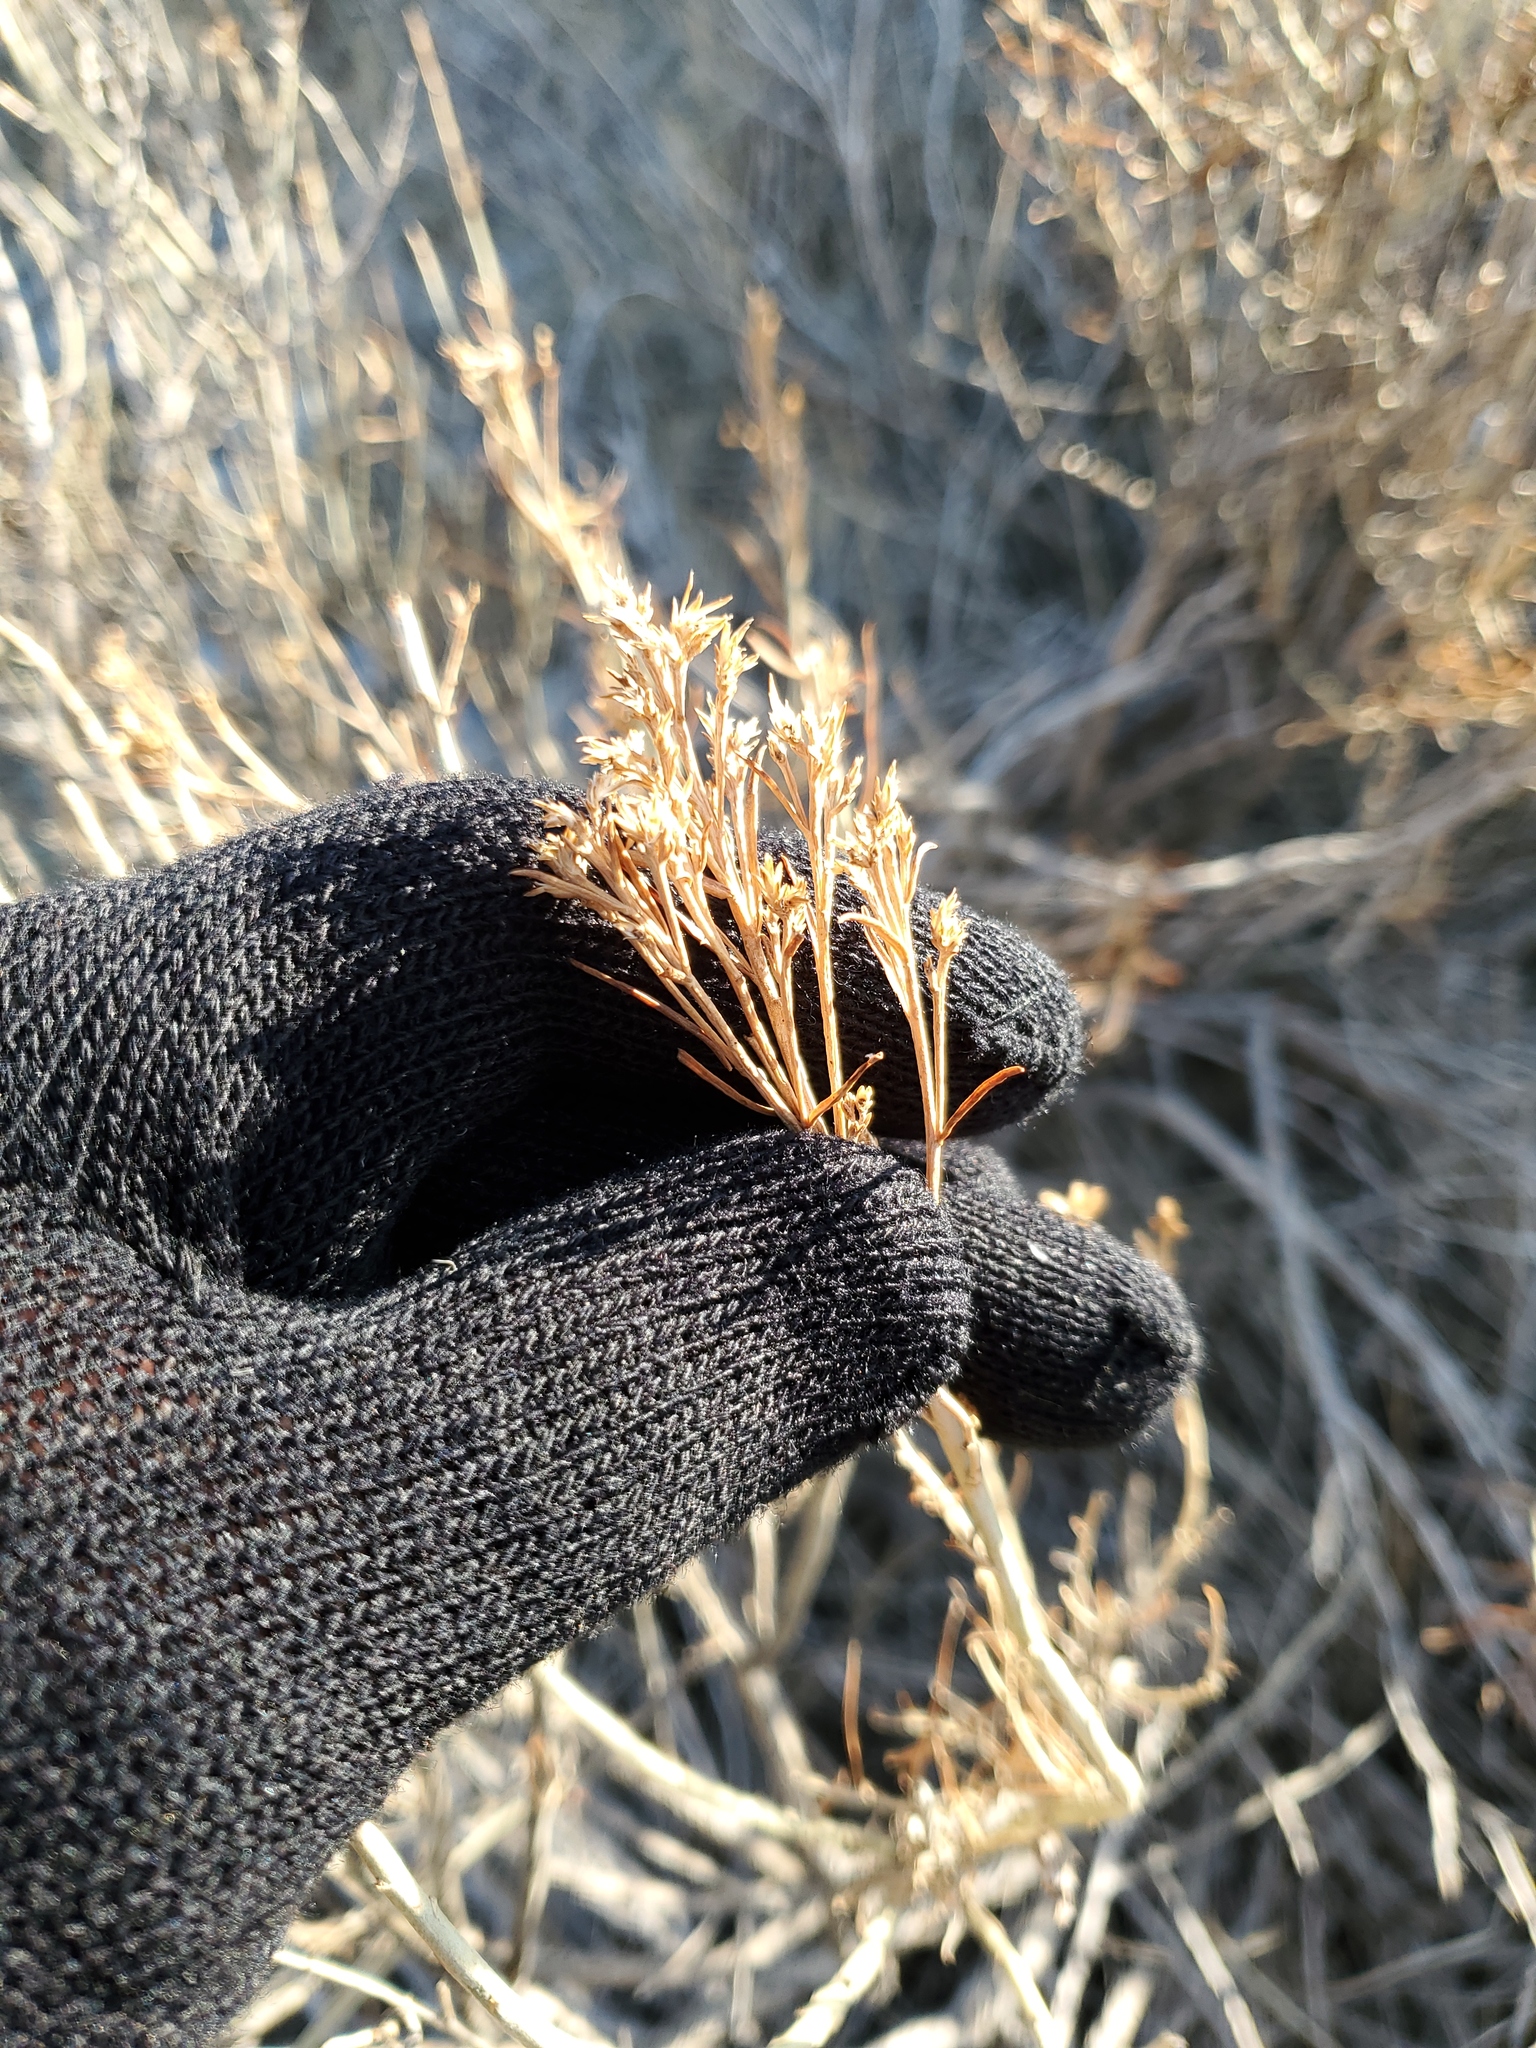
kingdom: Plantae
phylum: Tracheophyta
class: Magnoliopsida
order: Asterales
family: Asteraceae
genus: Ericameria
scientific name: Ericameria nauseosa
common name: Rubber rabbitbrush
